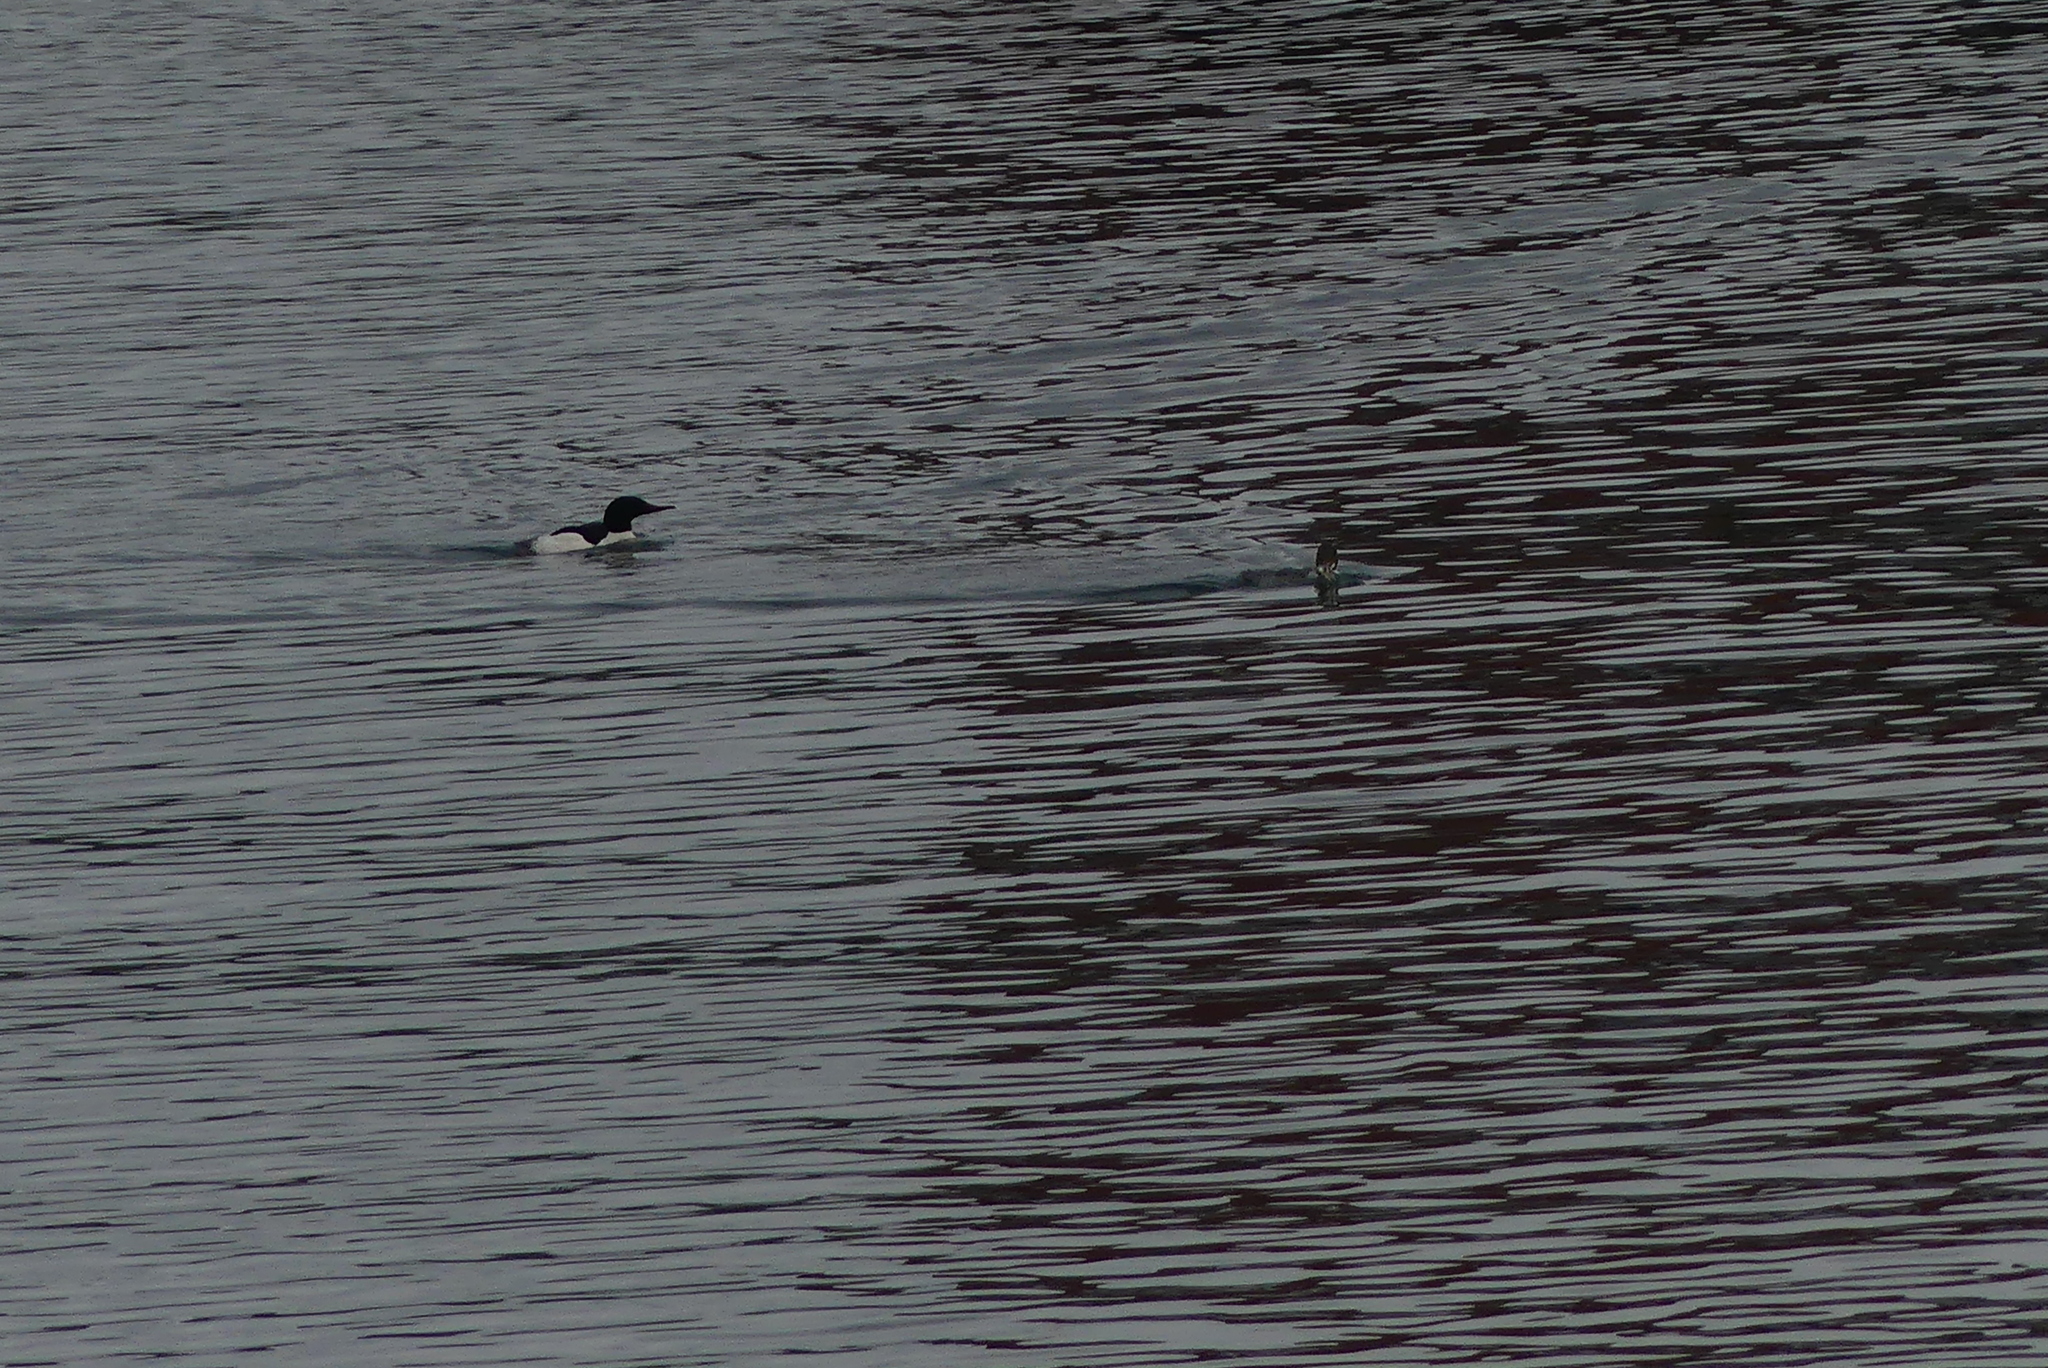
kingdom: Animalia
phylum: Chordata
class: Aves
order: Anseriformes
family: Anatidae
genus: Mergus
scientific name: Mergus merganser
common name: Common merganser
